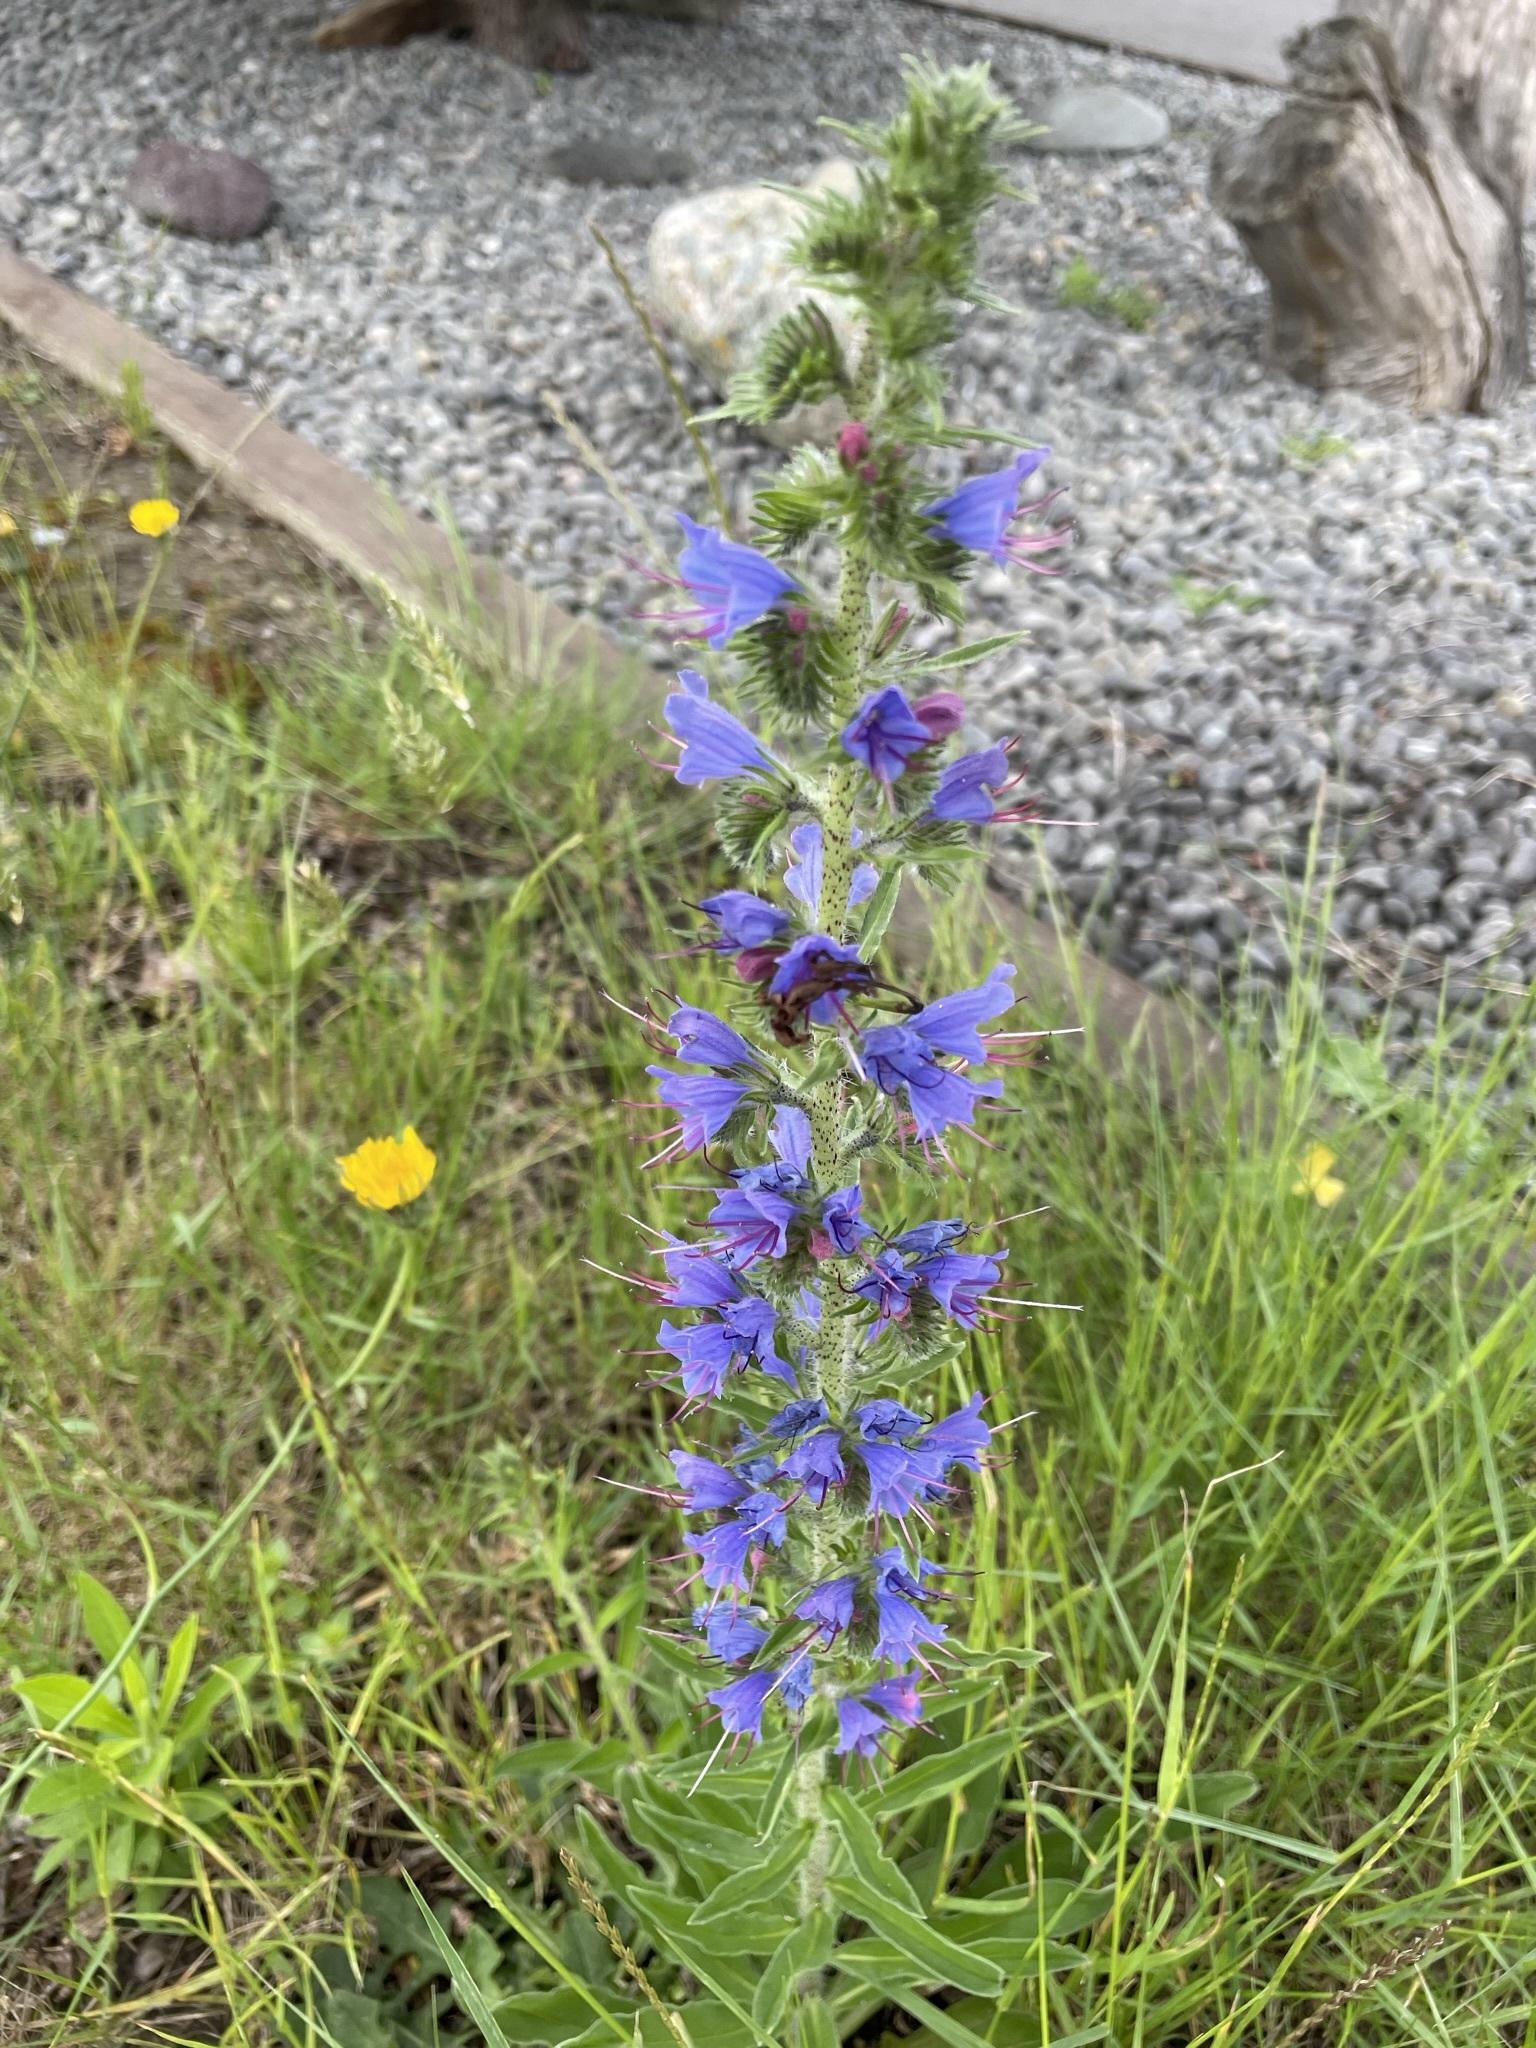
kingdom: Plantae
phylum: Tracheophyta
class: Magnoliopsida
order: Boraginales
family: Boraginaceae
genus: Echium
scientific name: Echium vulgare
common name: Common viper's bugloss
